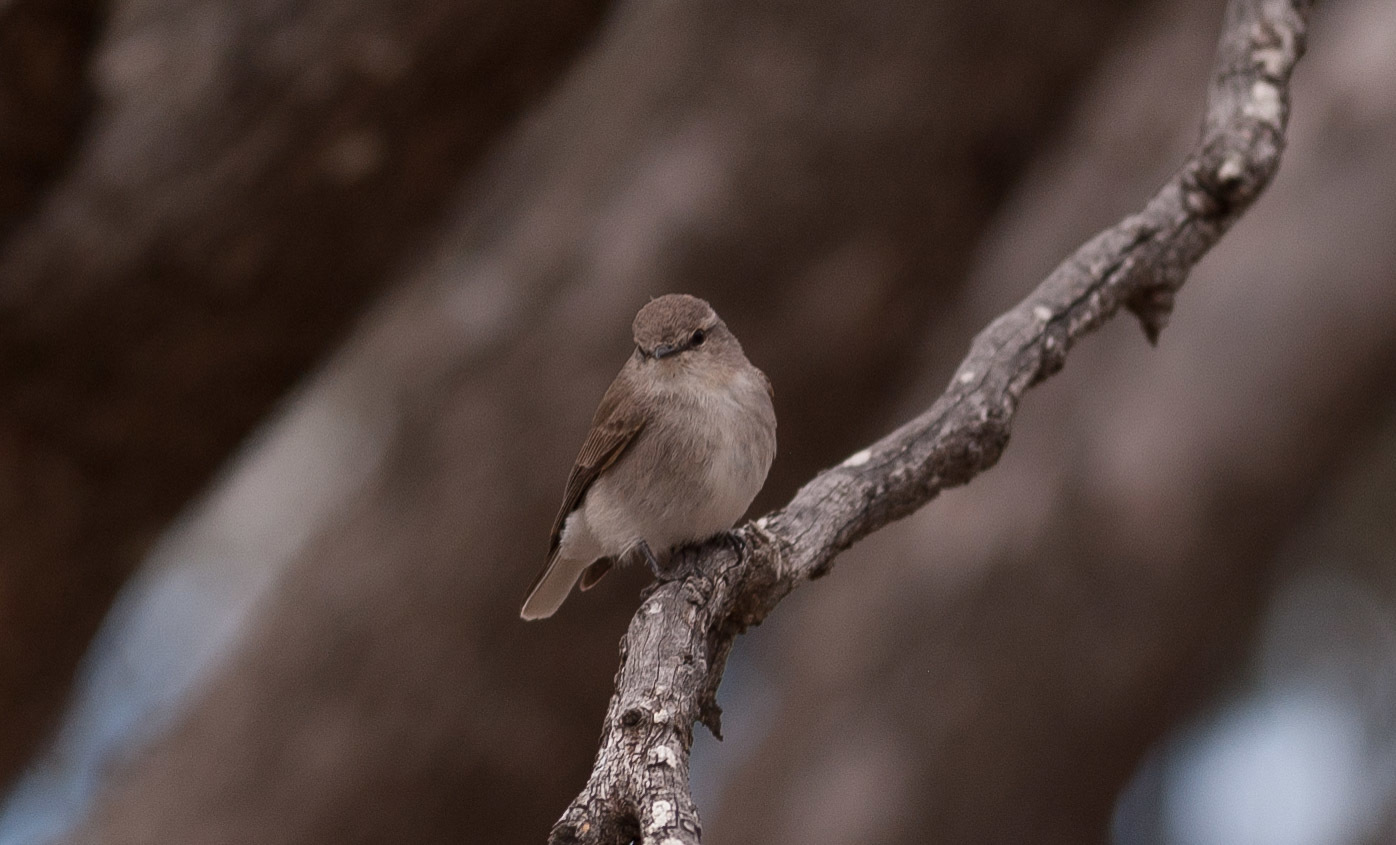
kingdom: Animalia
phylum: Chordata
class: Aves
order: Passeriformes
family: Petroicidae
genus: Microeca
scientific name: Microeca fascinans
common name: Jacky winter
